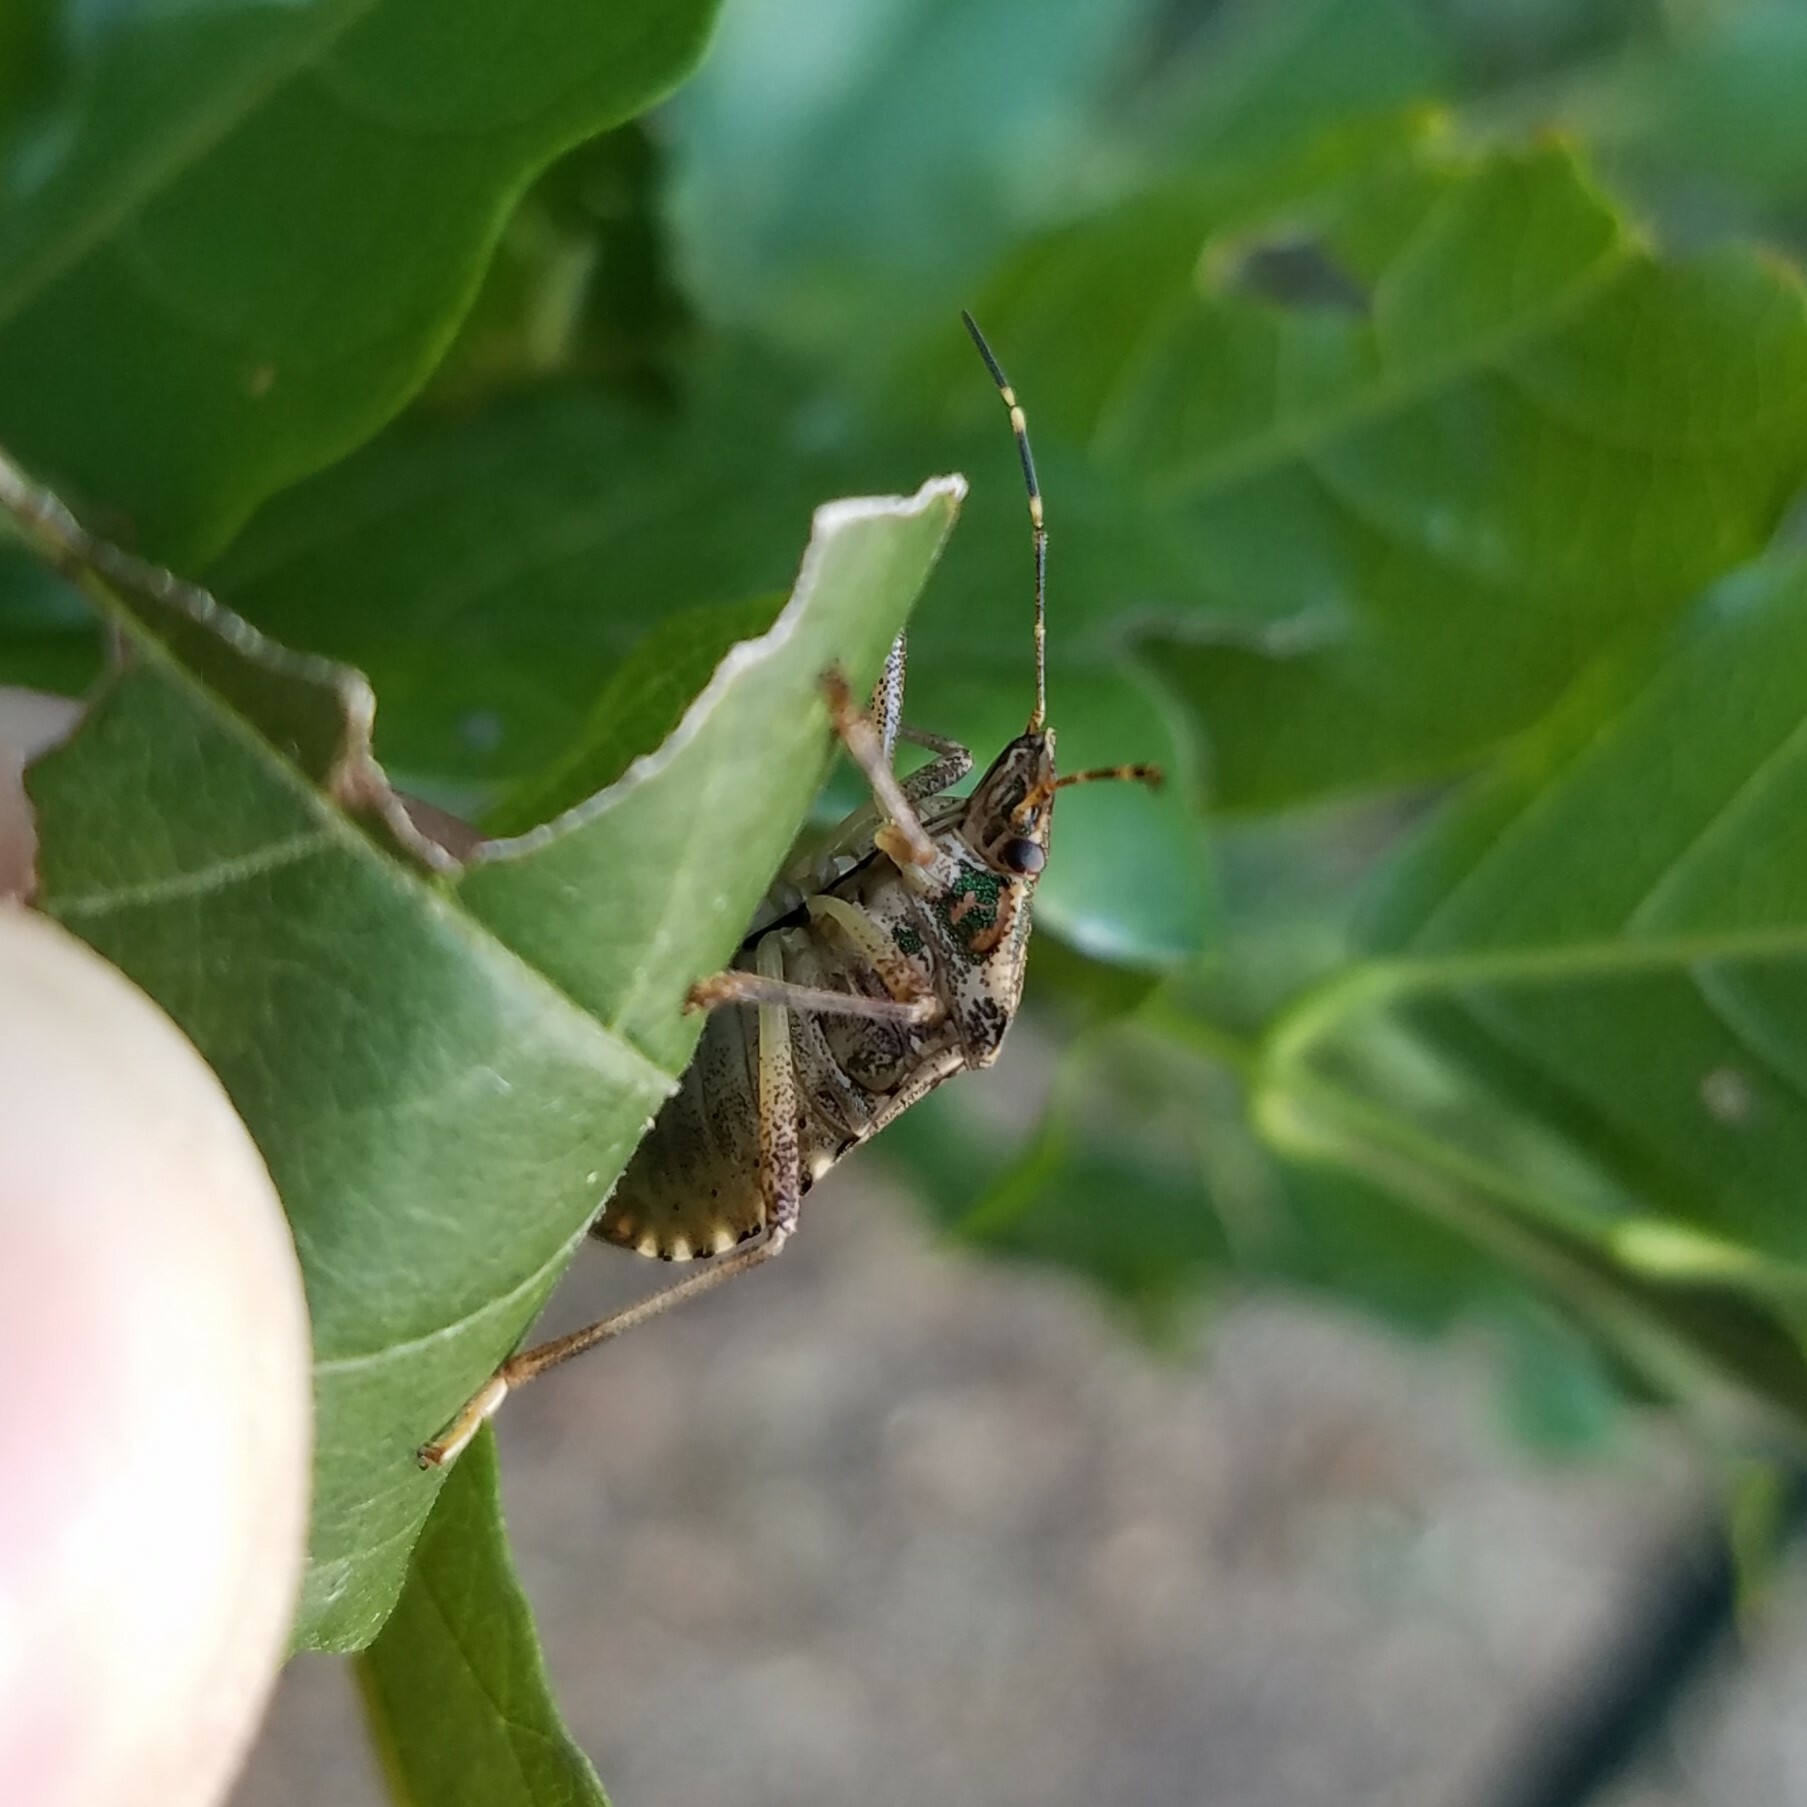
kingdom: Animalia
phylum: Arthropoda
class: Insecta
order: Hemiptera
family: Pentatomidae
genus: Halyomorpha
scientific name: Halyomorpha halys
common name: Brown marmorated stink bug
